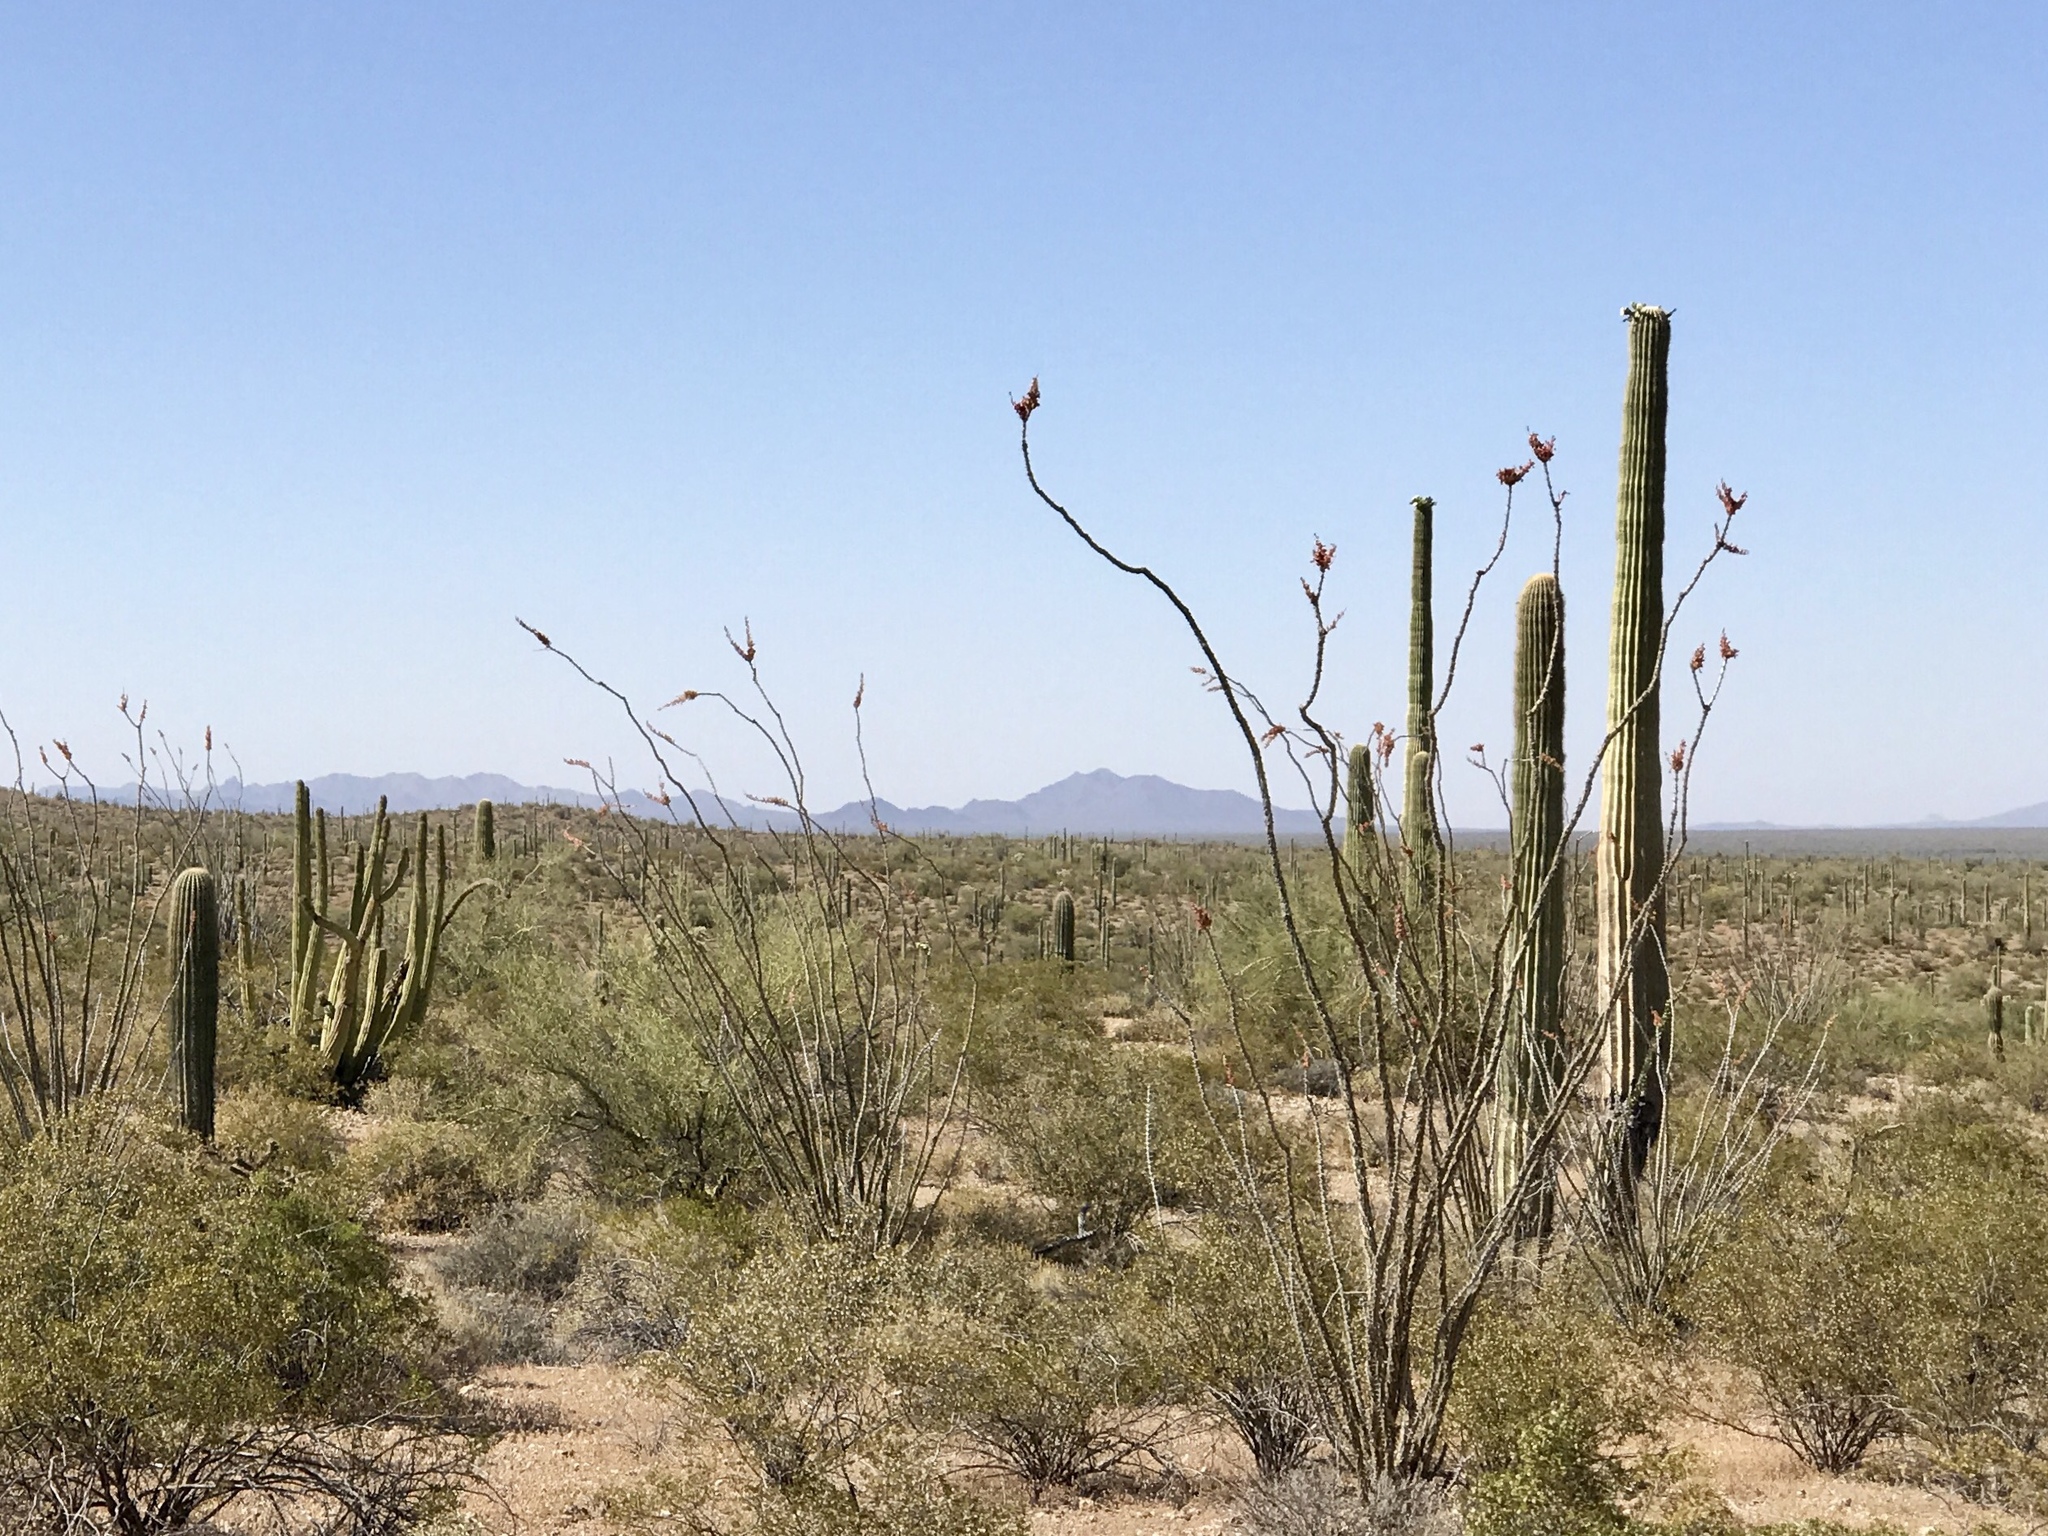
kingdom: Plantae
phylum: Tracheophyta
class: Magnoliopsida
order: Ericales
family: Fouquieriaceae
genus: Fouquieria
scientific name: Fouquieria splendens
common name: Vine-cactus
